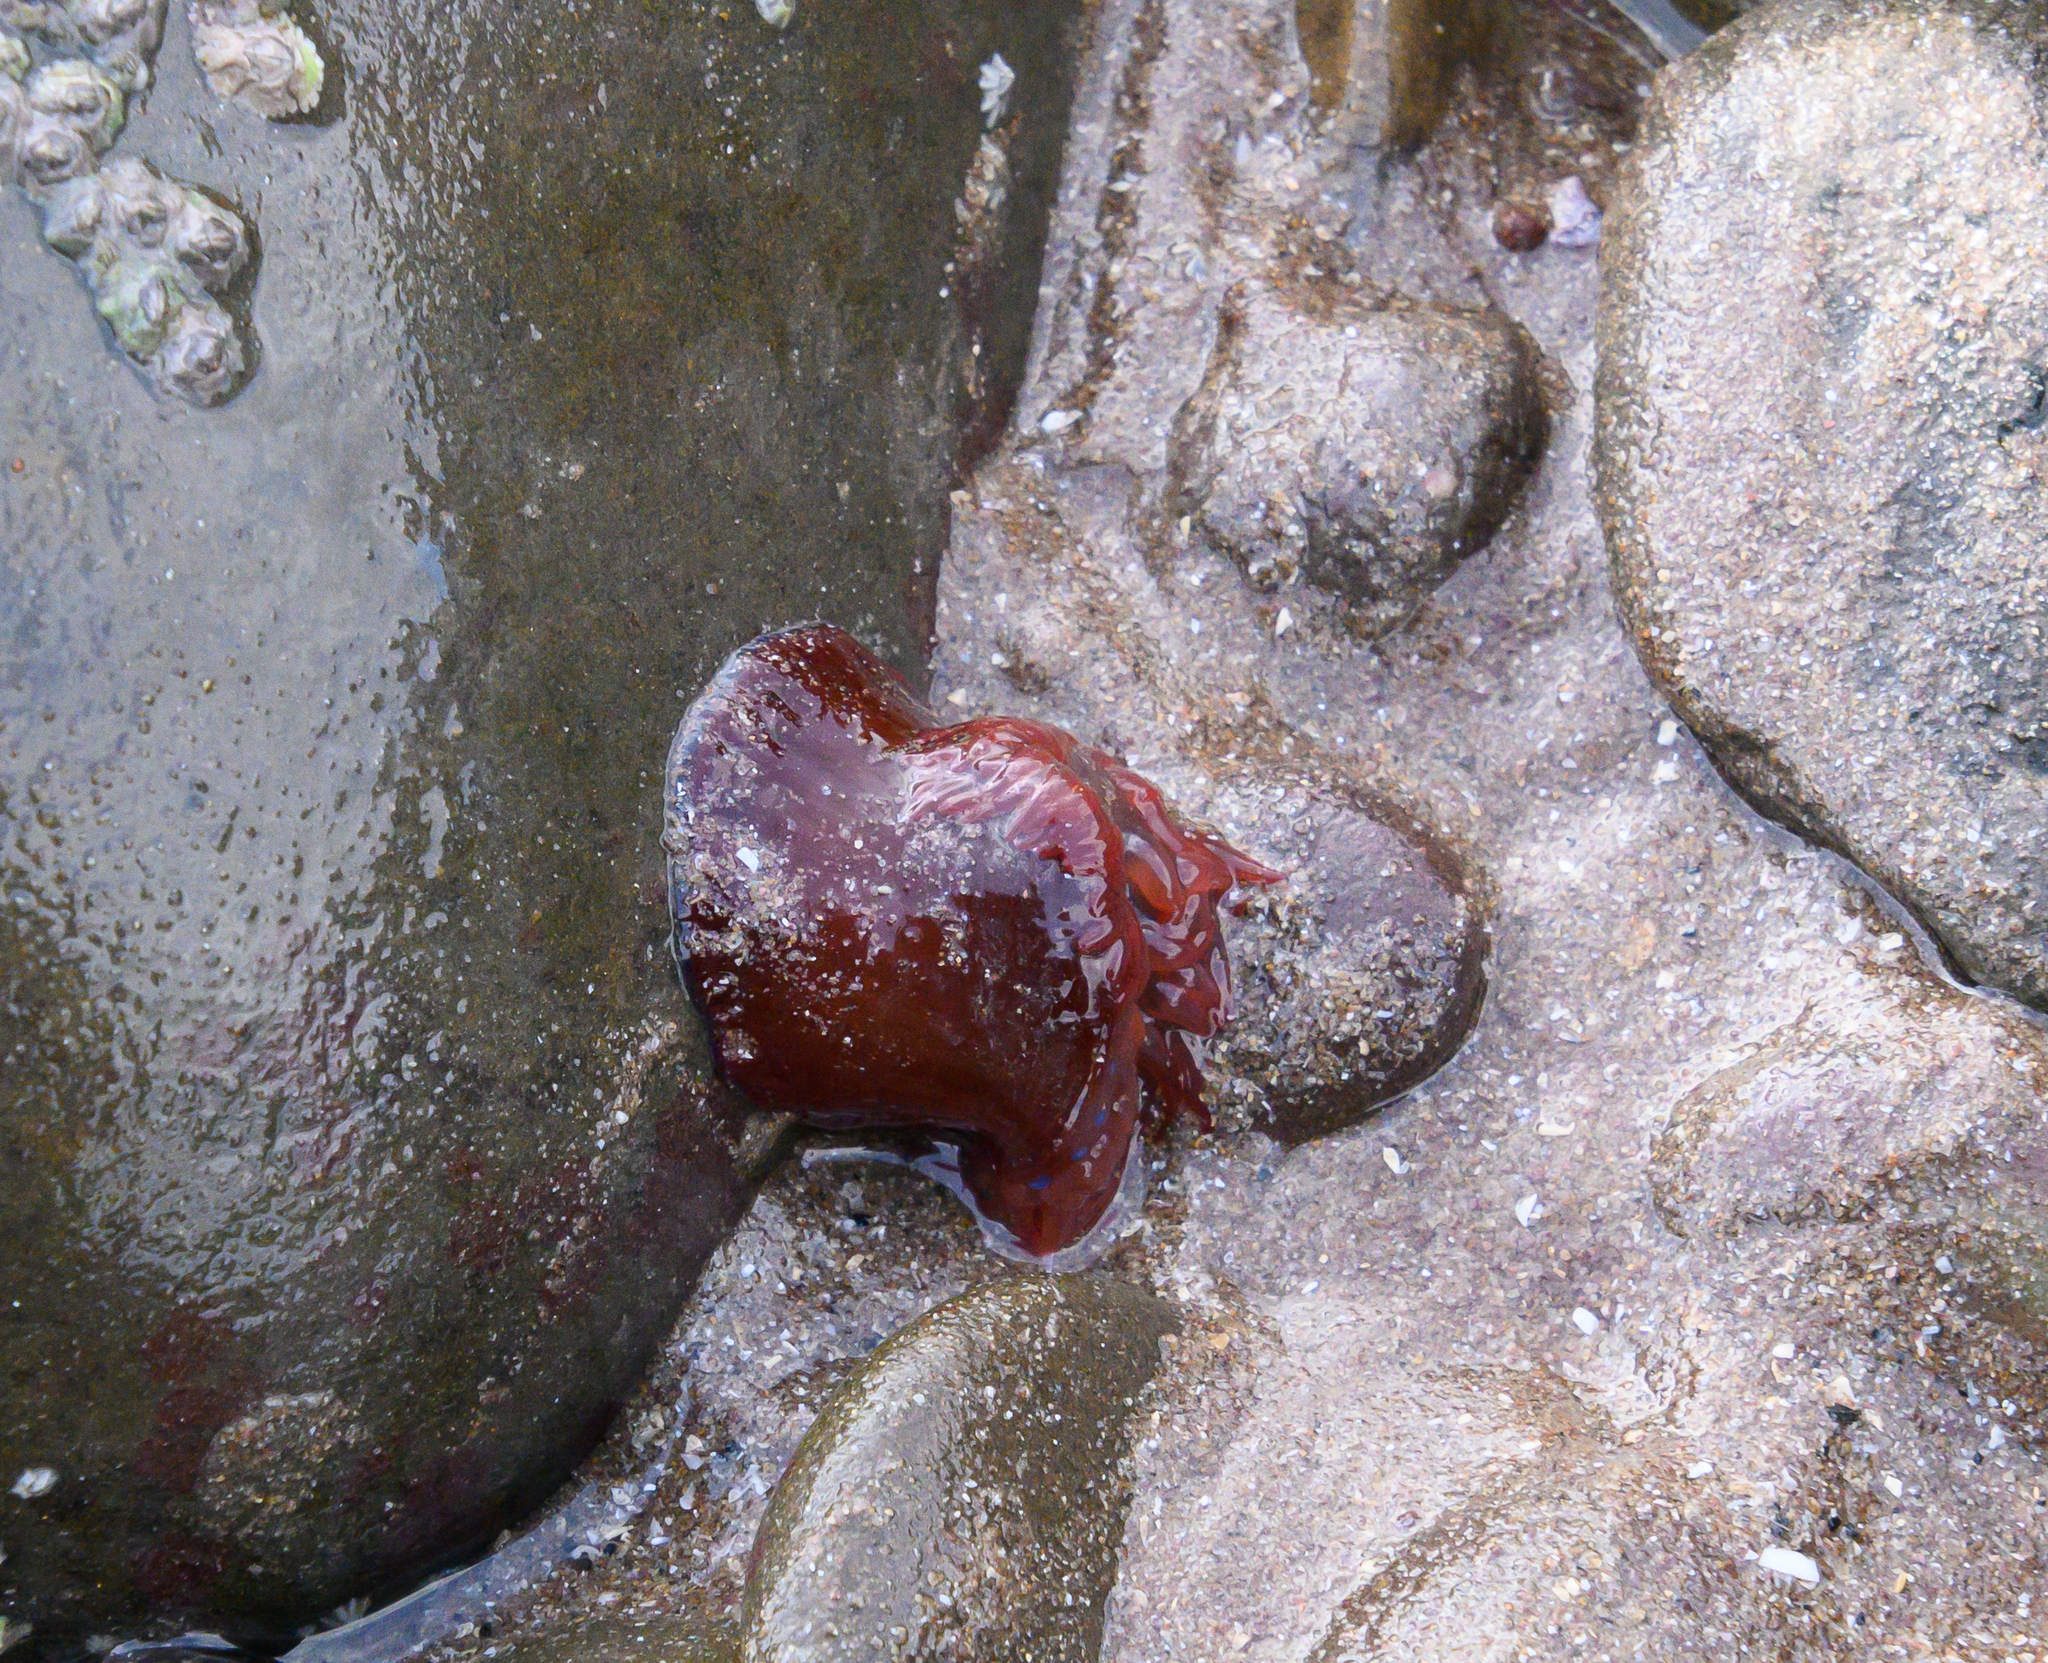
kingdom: Animalia
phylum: Cnidaria
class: Anthozoa
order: Actiniaria
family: Actiniidae
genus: Actinia
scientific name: Actinia equina
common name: Beadlet anemone
